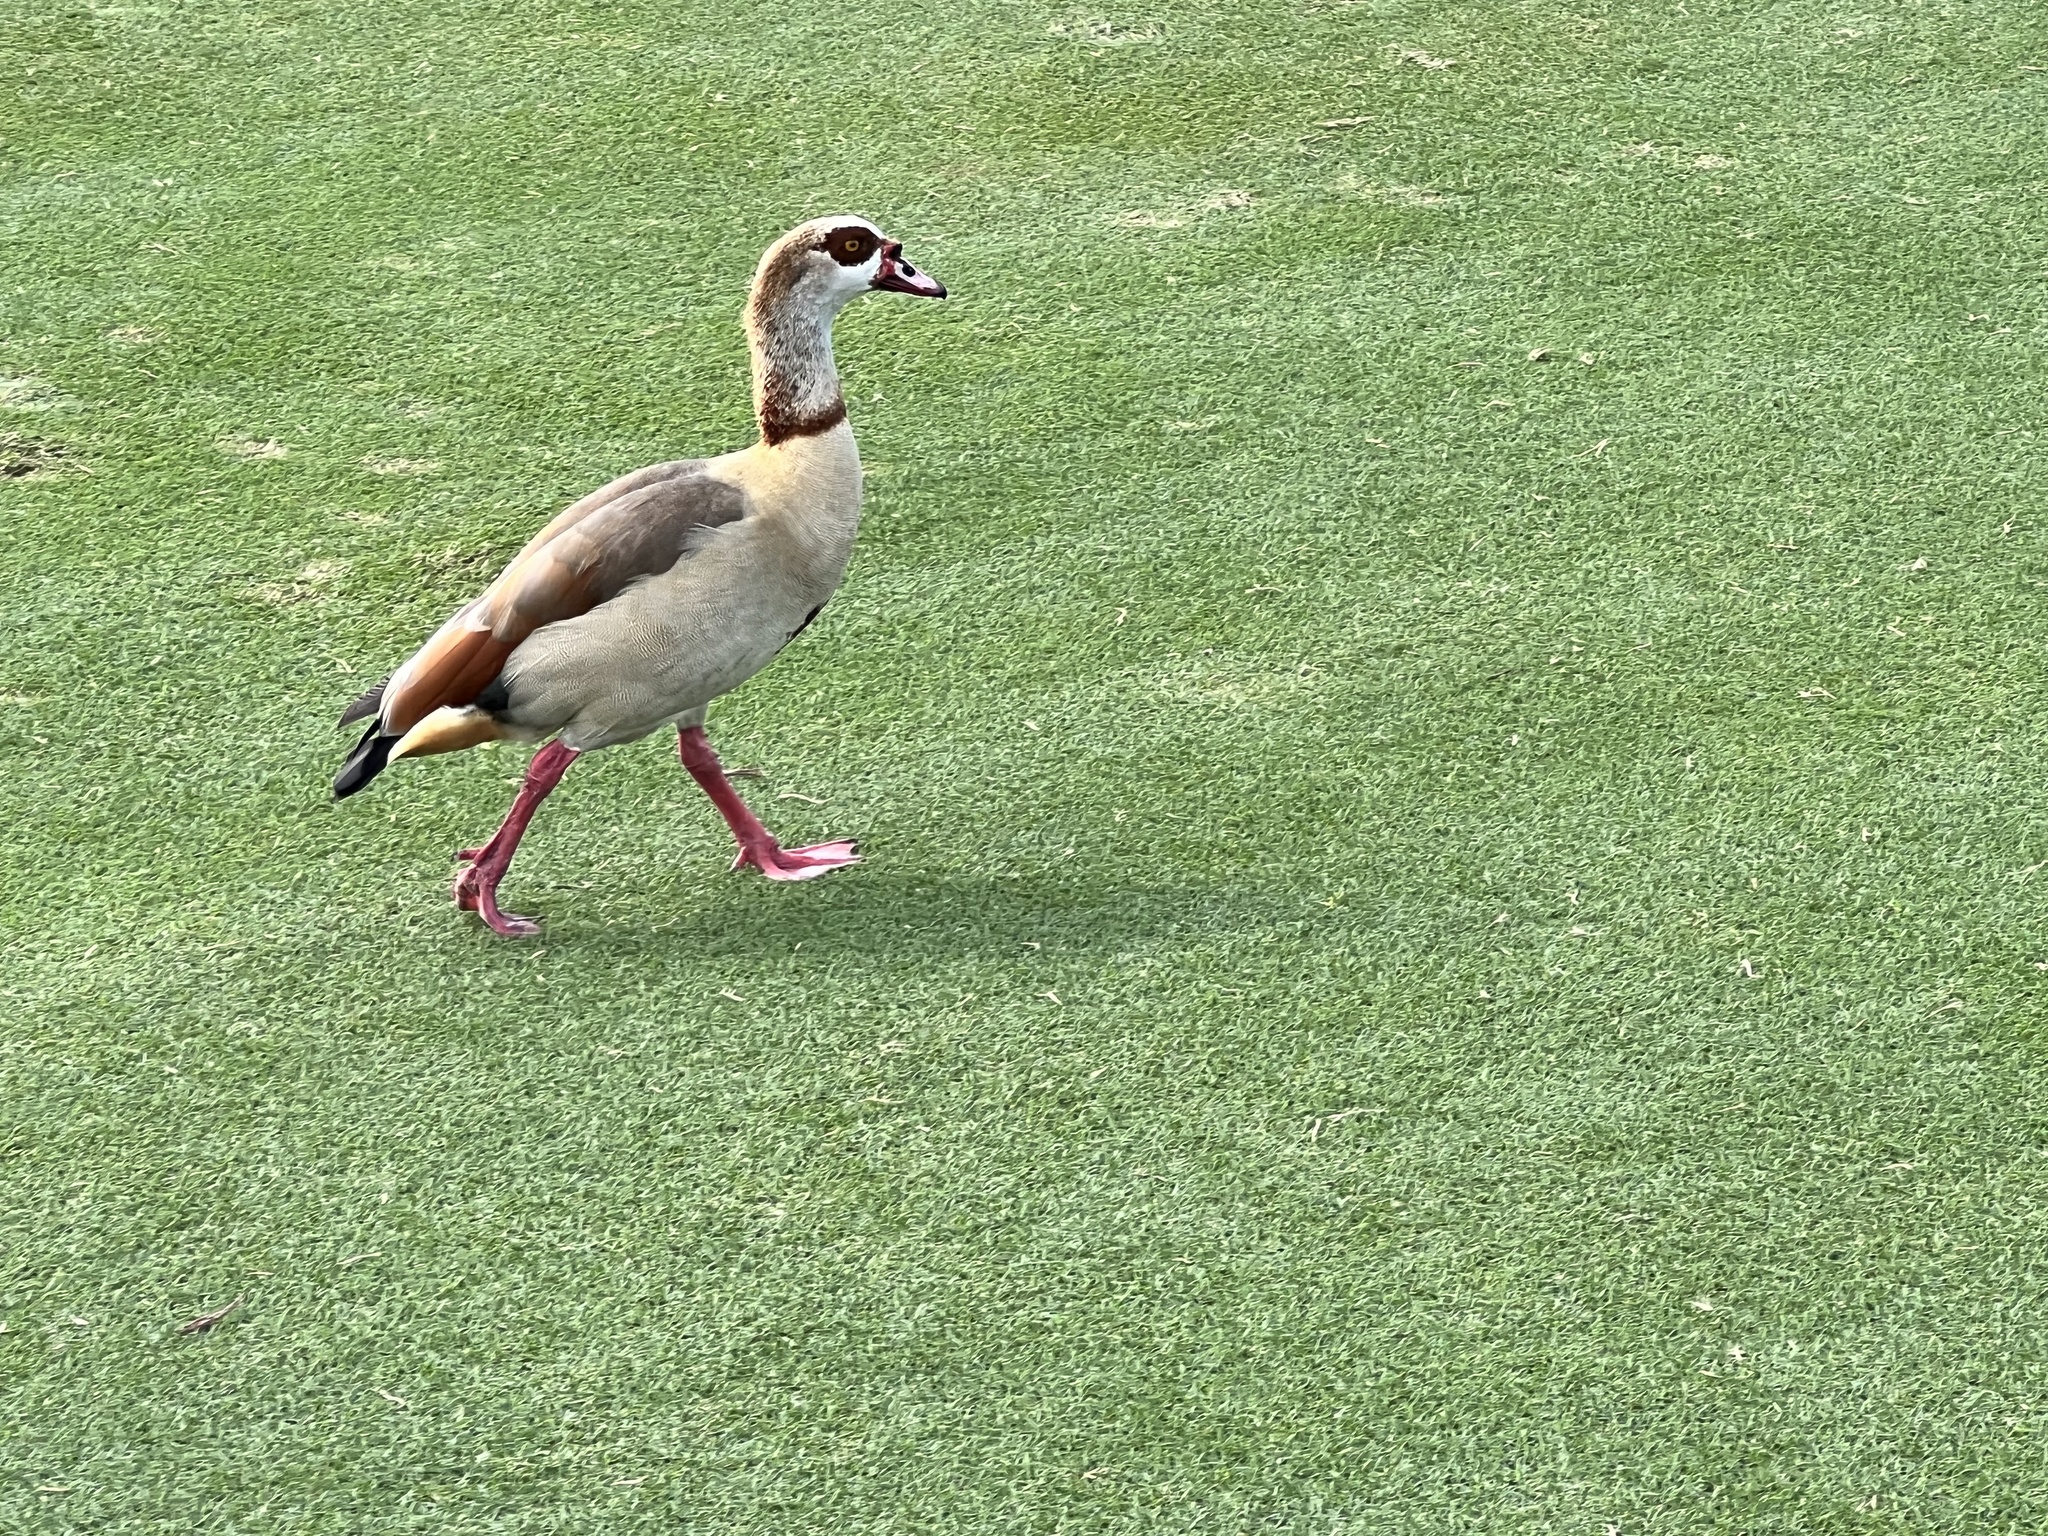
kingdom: Animalia
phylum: Chordata
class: Aves
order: Anseriformes
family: Anatidae
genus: Alopochen
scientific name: Alopochen aegyptiaca
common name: Egyptian goose
